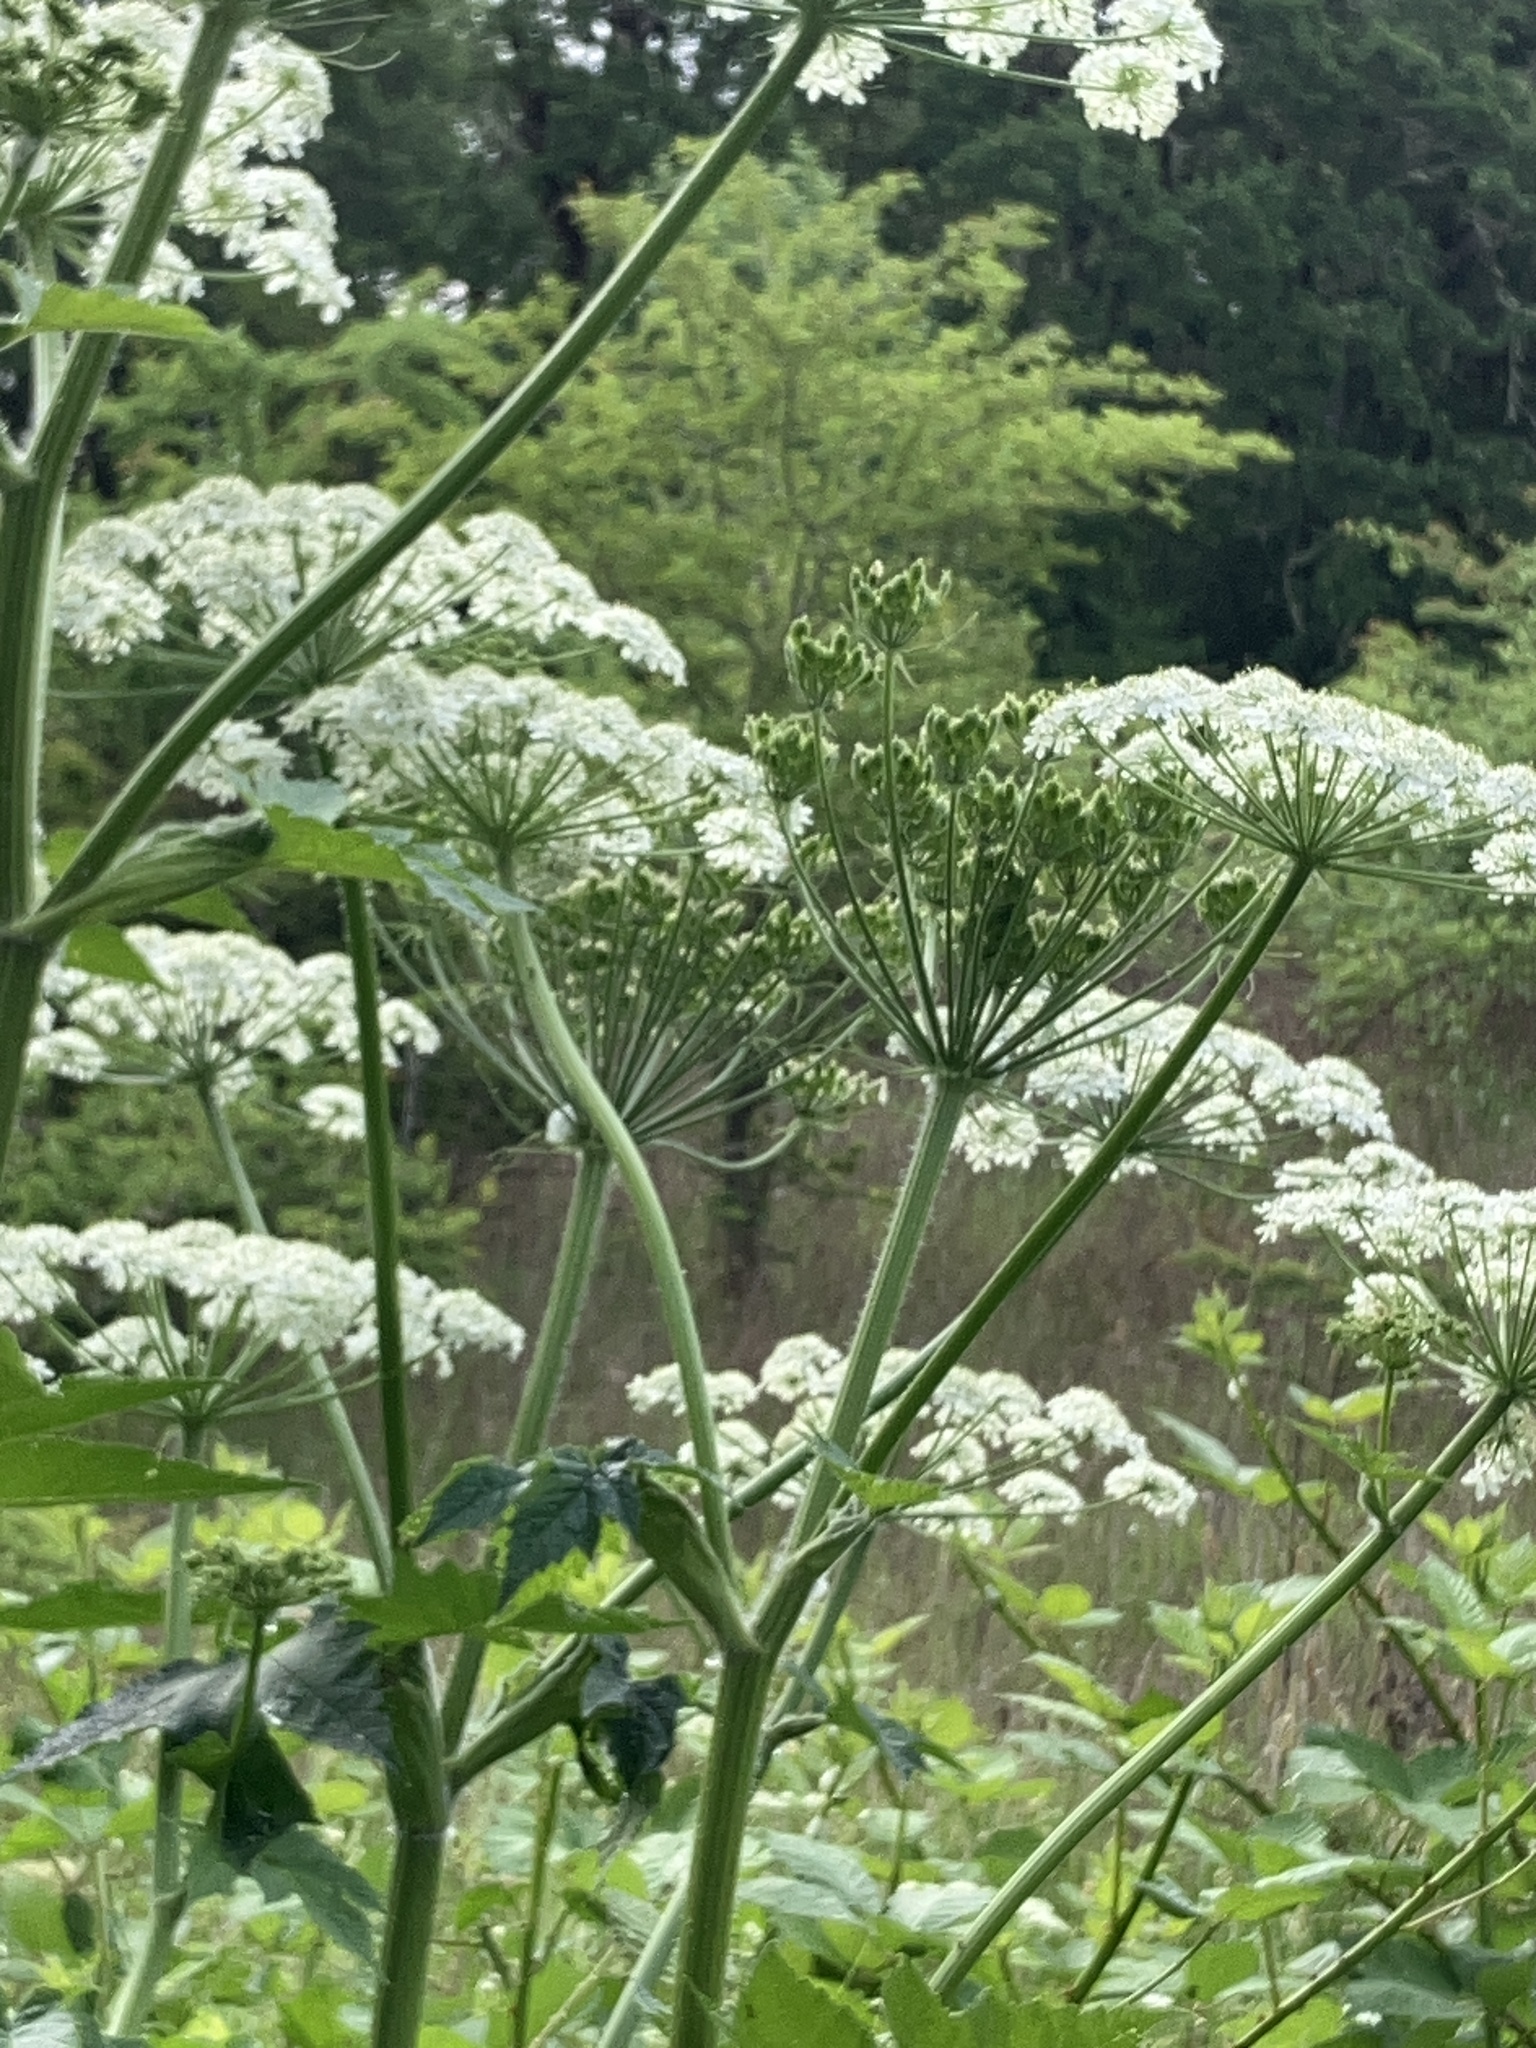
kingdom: Plantae
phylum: Tracheophyta
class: Magnoliopsida
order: Apiales
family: Apiaceae
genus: Heracleum
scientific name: Heracleum maximum
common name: American cow parsnip
